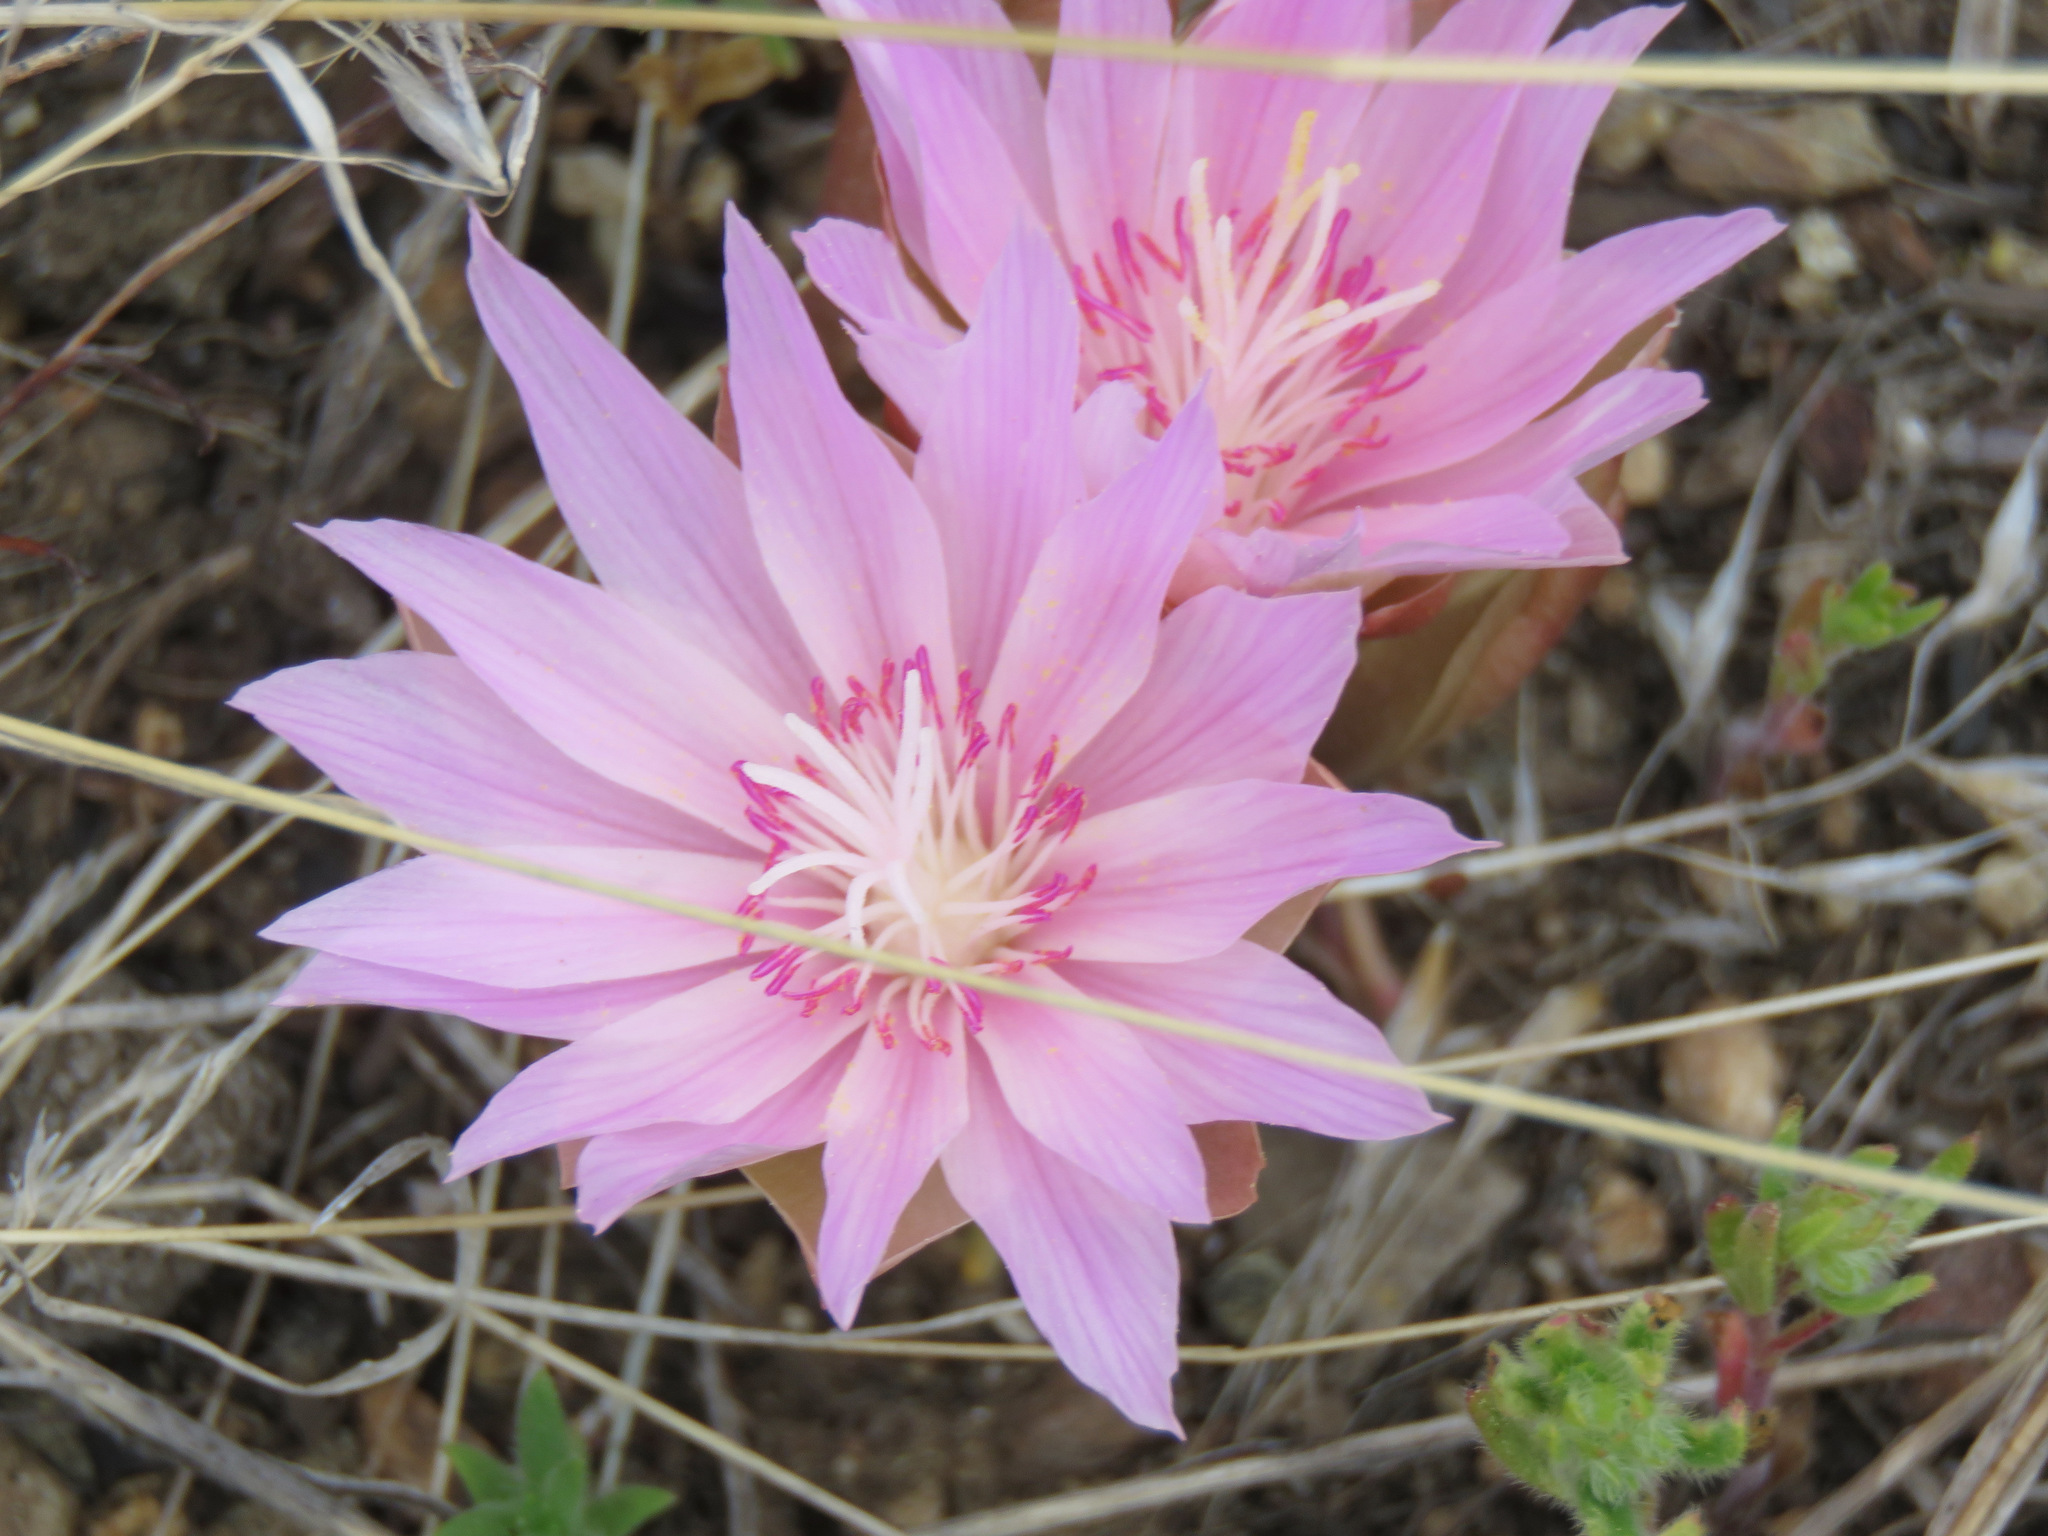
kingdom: Plantae
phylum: Tracheophyta
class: Magnoliopsida
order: Caryophyllales
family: Montiaceae
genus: Lewisia
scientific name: Lewisia rediviva
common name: Bitter-root
